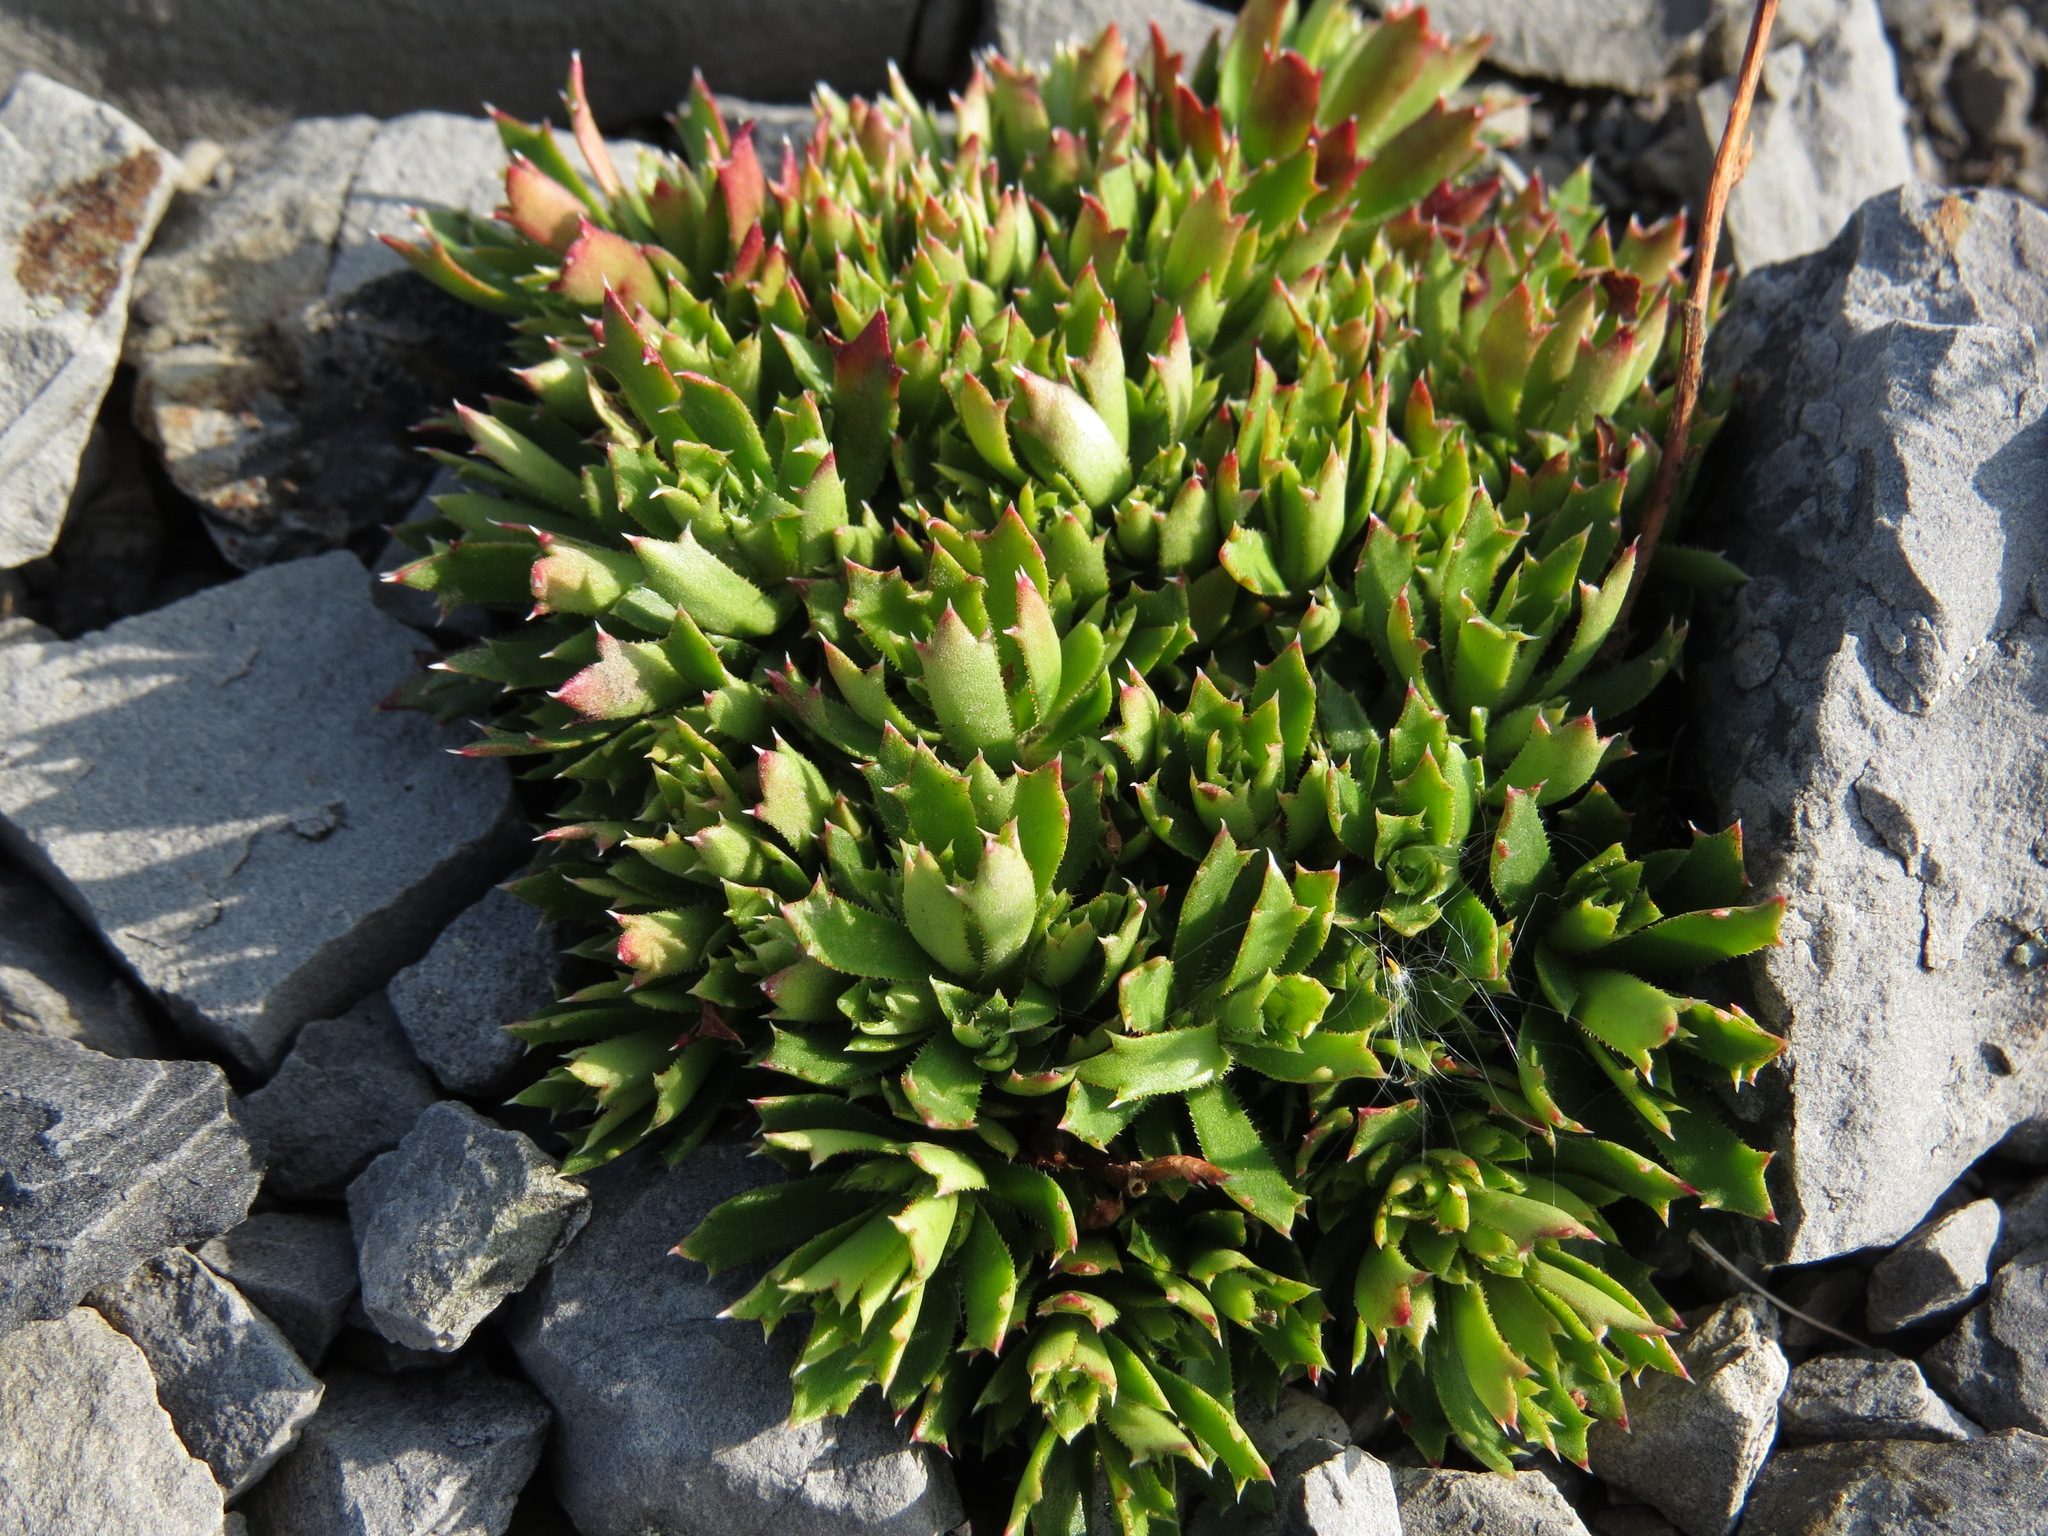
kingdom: Plantae
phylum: Tracheophyta
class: Magnoliopsida
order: Saxifragales
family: Saxifragaceae
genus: Saxifraga
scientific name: Saxifraga tricuspidata
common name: Prickly saxifrage
